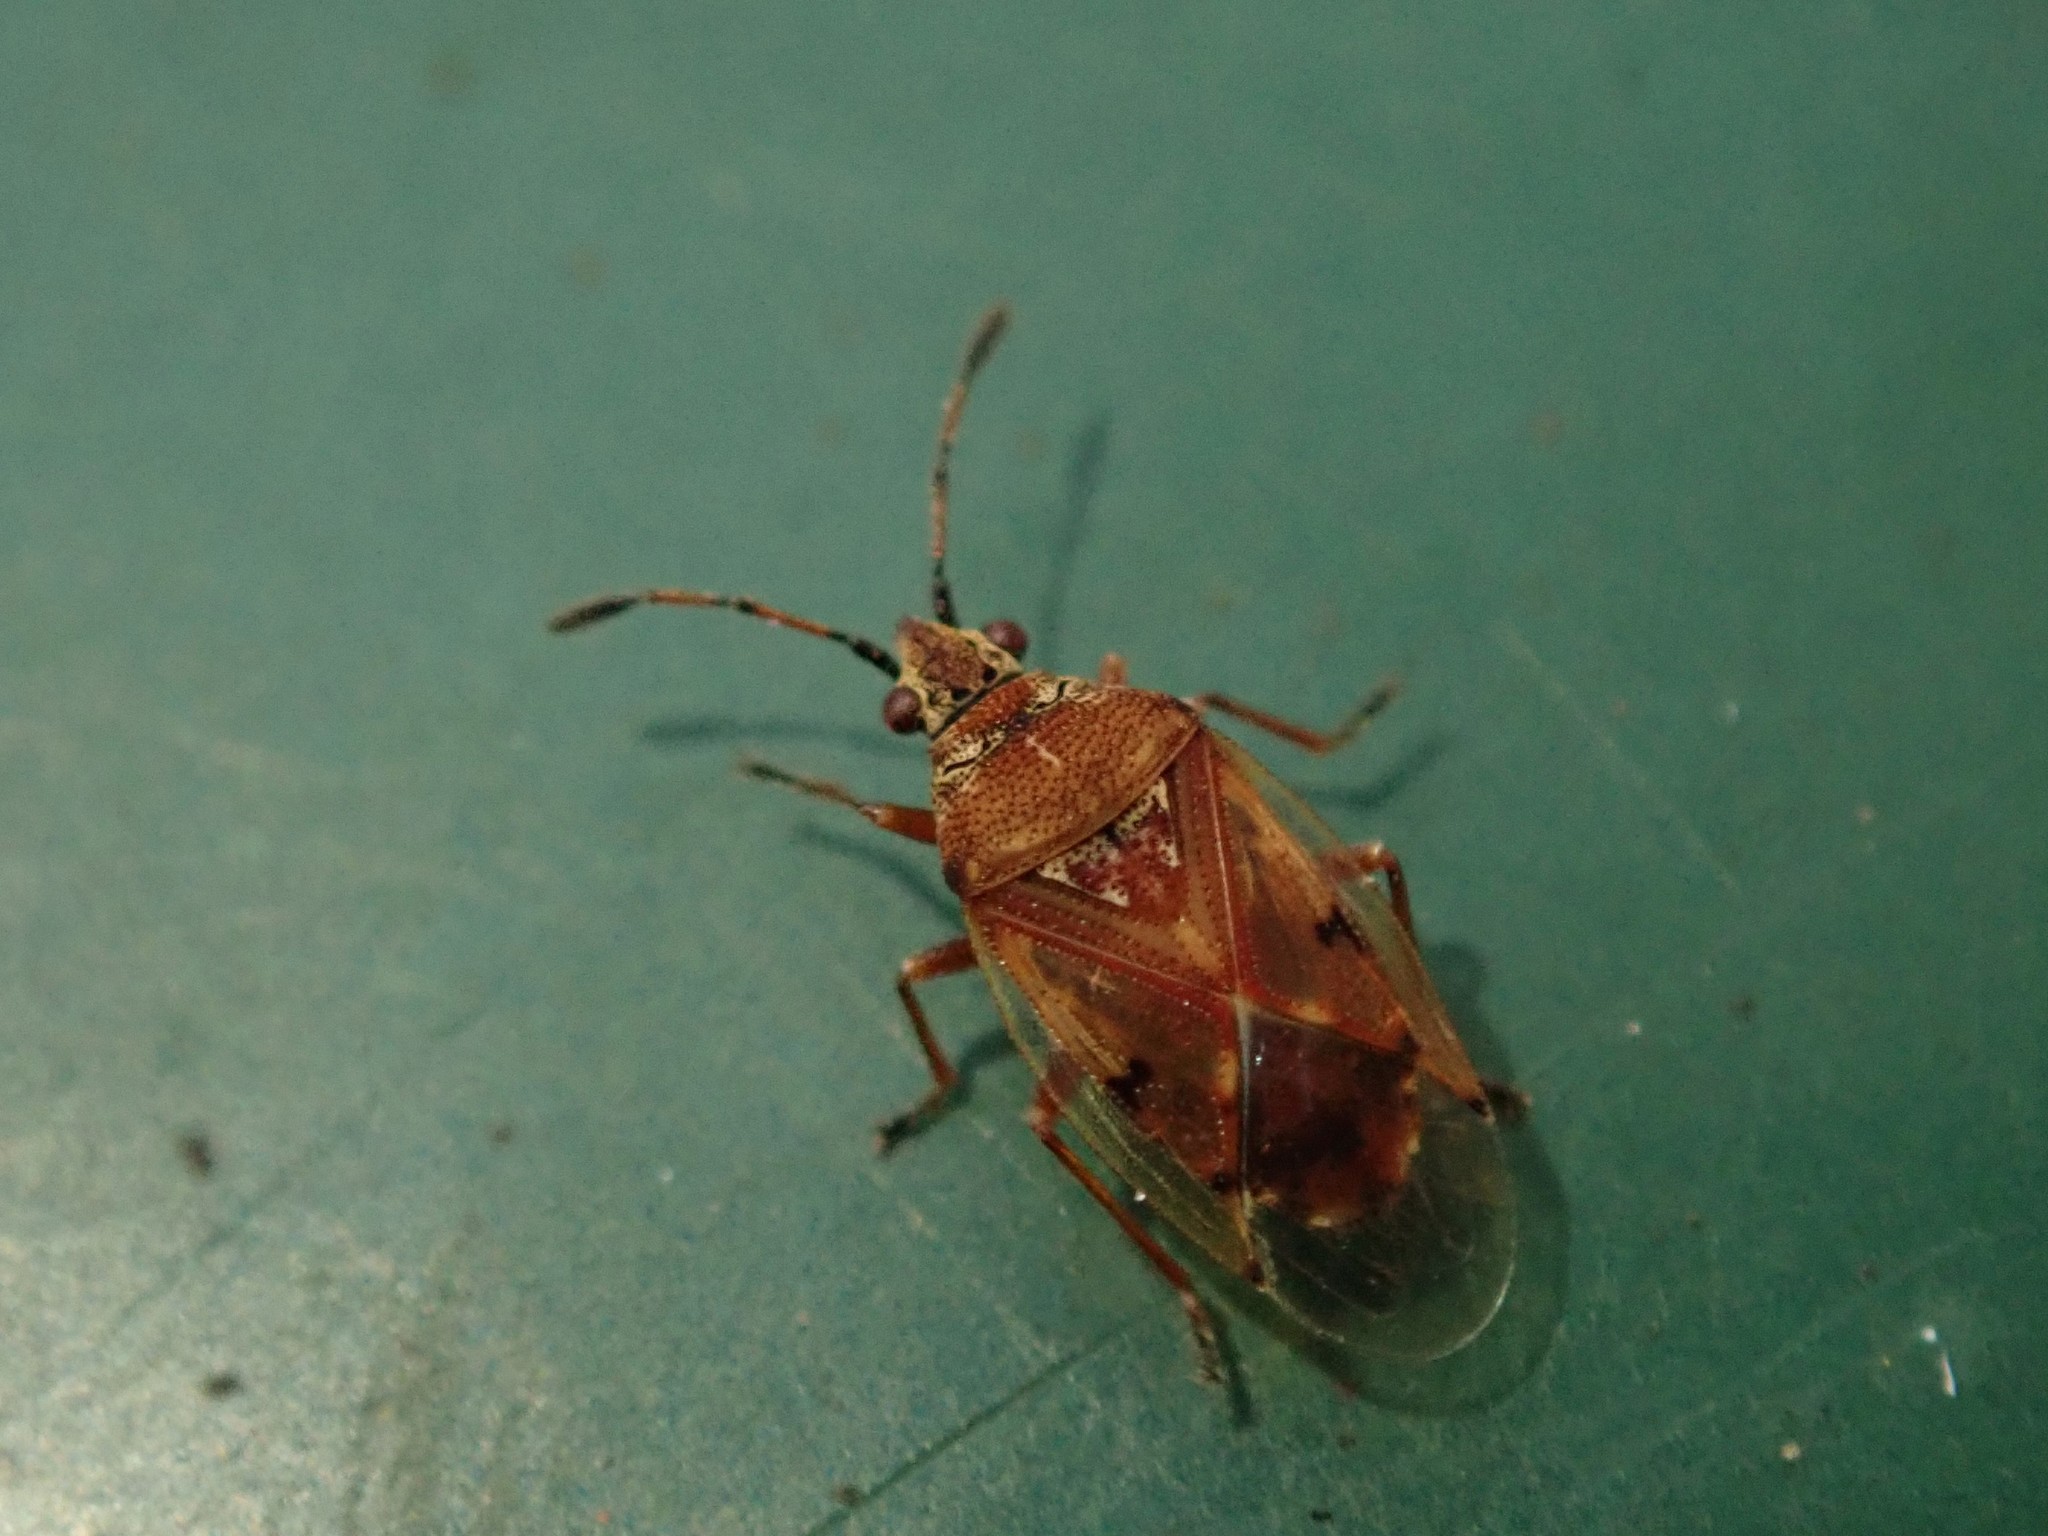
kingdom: Animalia
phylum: Arthropoda
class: Insecta
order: Hemiptera
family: Lygaeidae
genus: Kleidocerys
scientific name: Kleidocerys resedae
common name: Birch catkin bug
